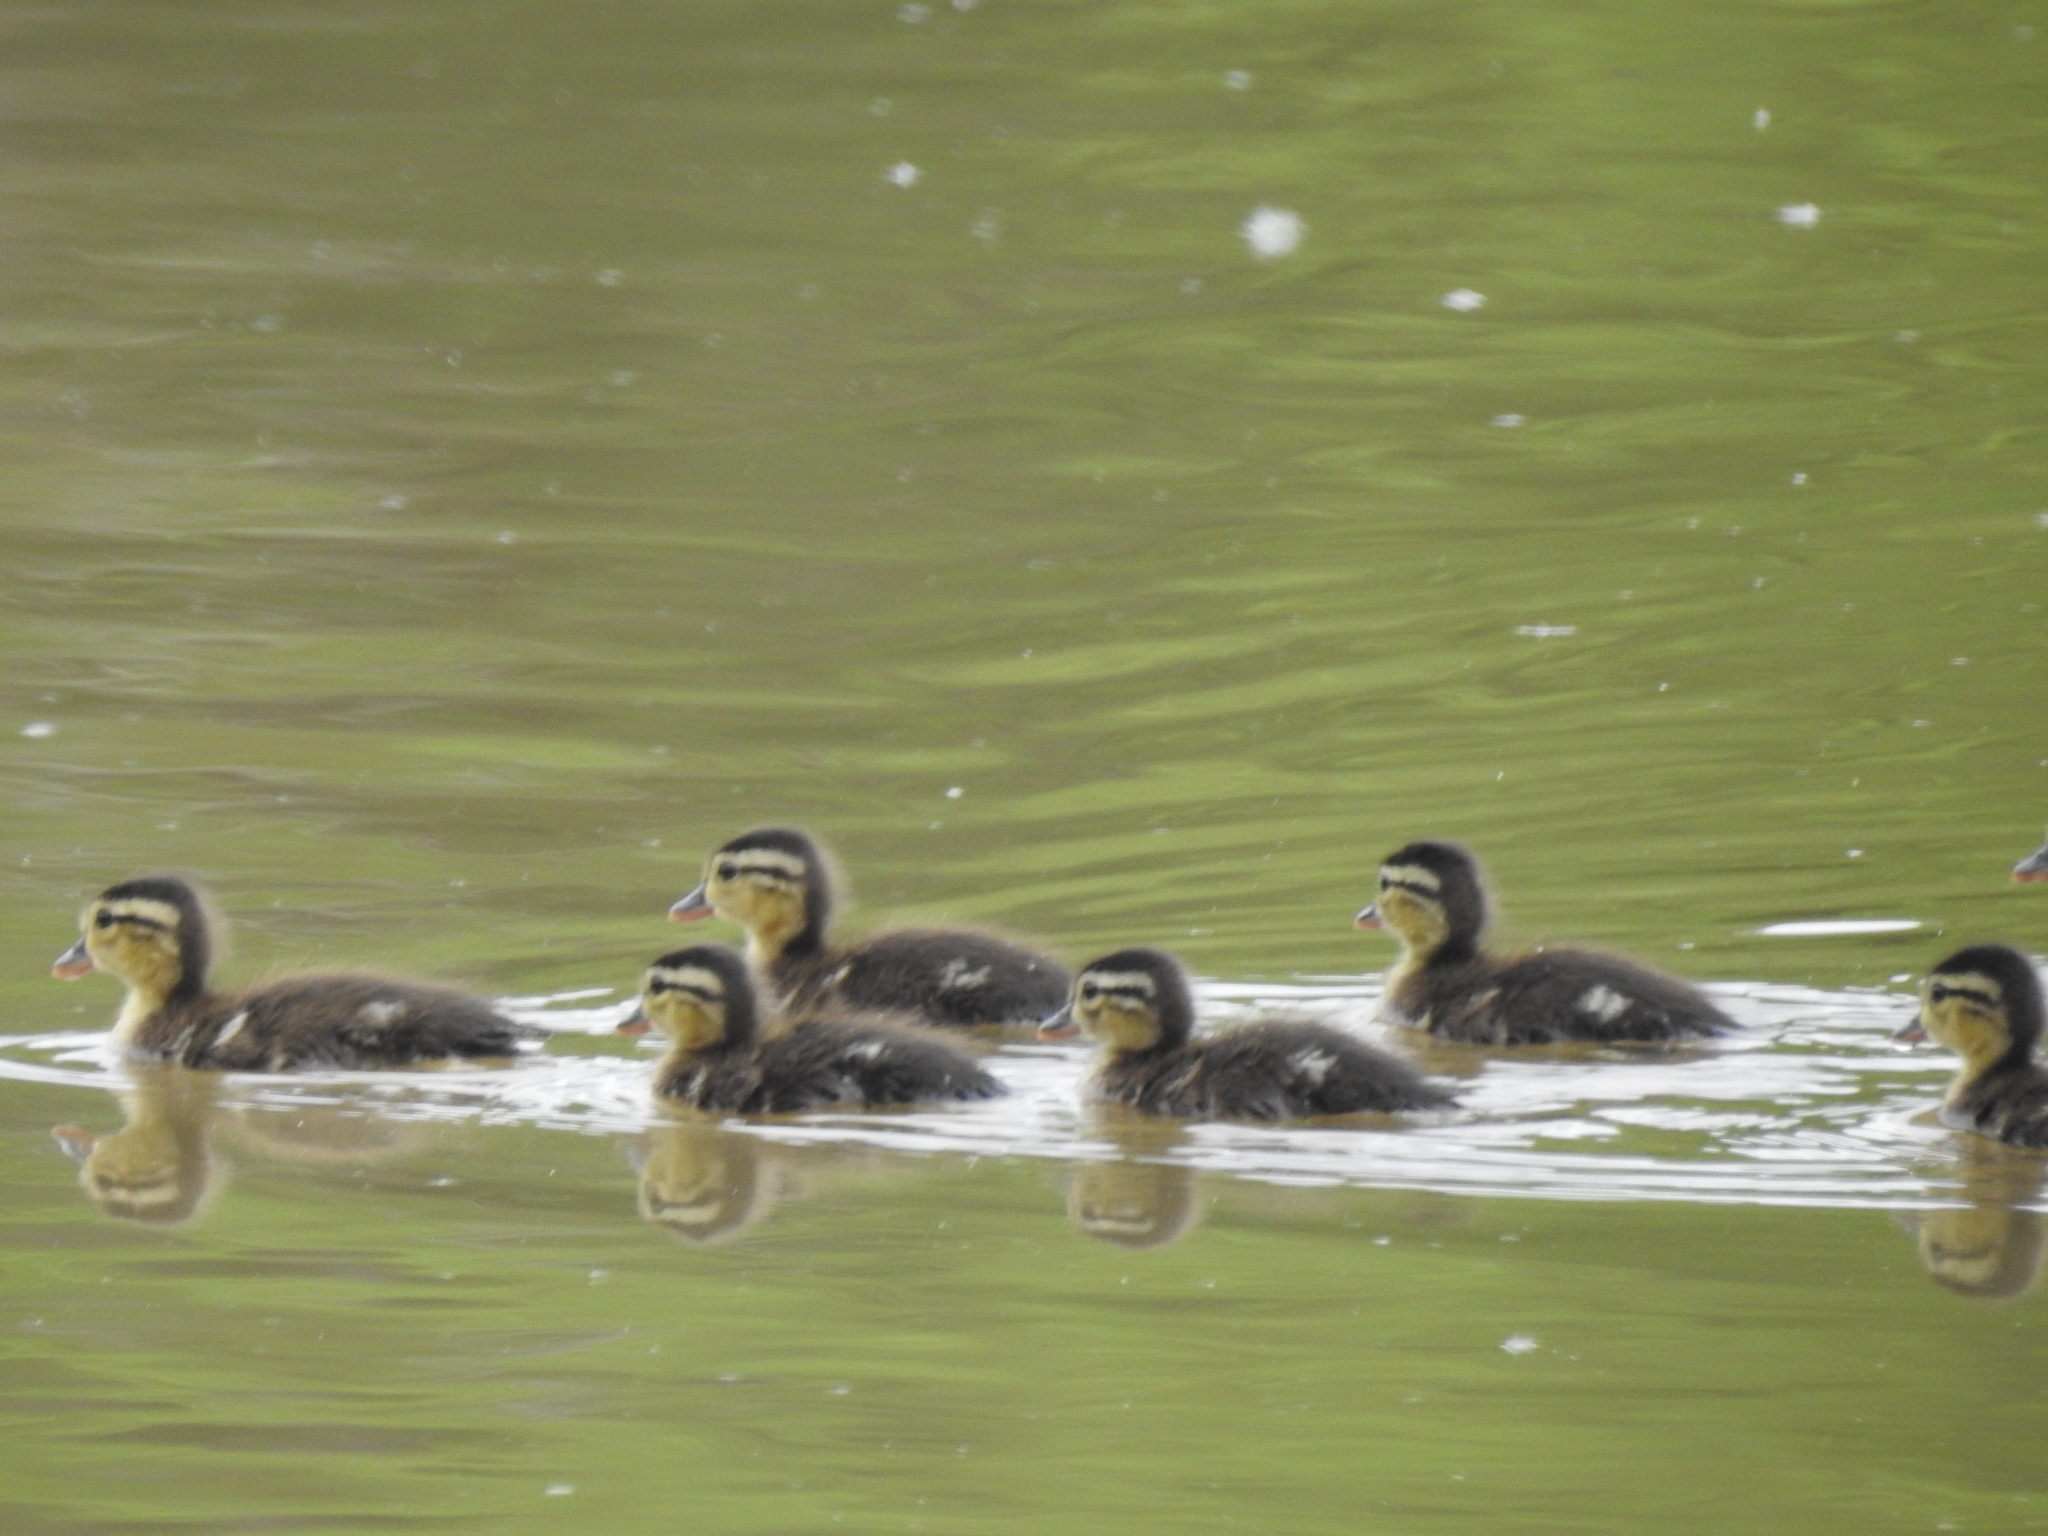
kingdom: Animalia
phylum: Chordata
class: Aves
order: Anseriformes
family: Anatidae
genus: Anas
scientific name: Anas platyrhynchos
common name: Mallard
